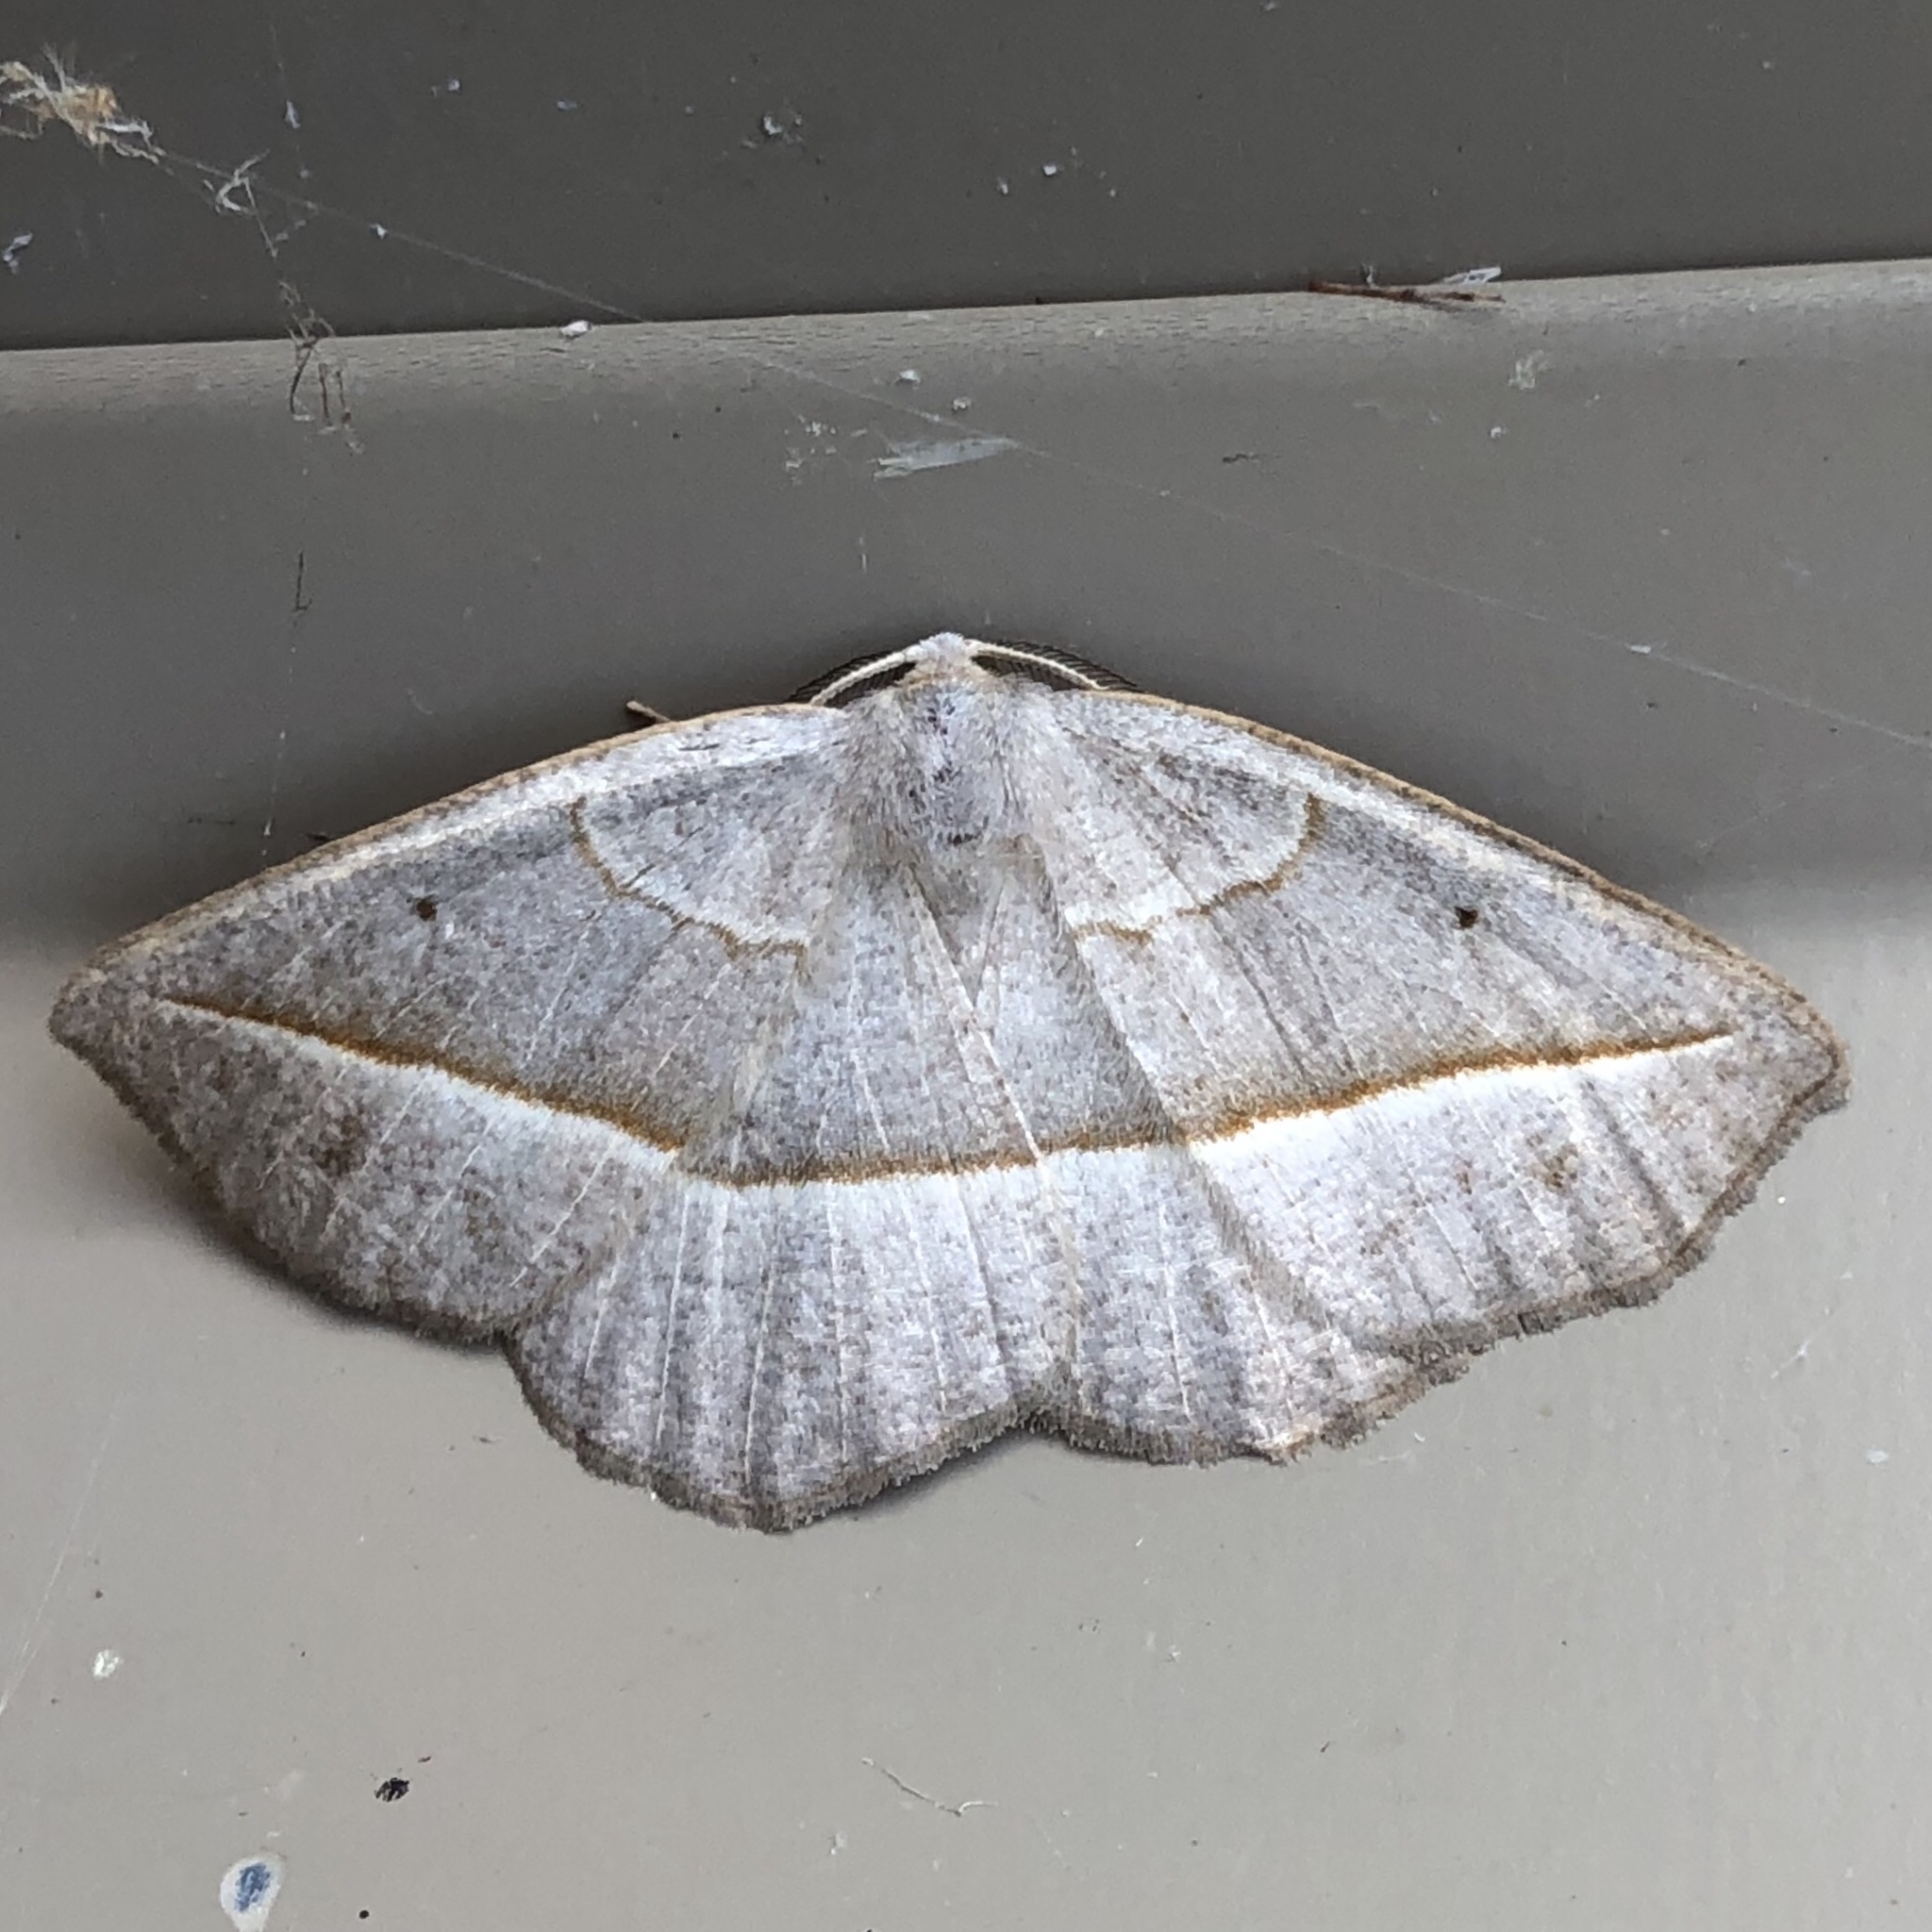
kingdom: Animalia
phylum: Arthropoda
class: Insecta
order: Lepidoptera
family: Geometridae
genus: Eusarca
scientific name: Eusarca confusaria
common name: Confused eusarca
